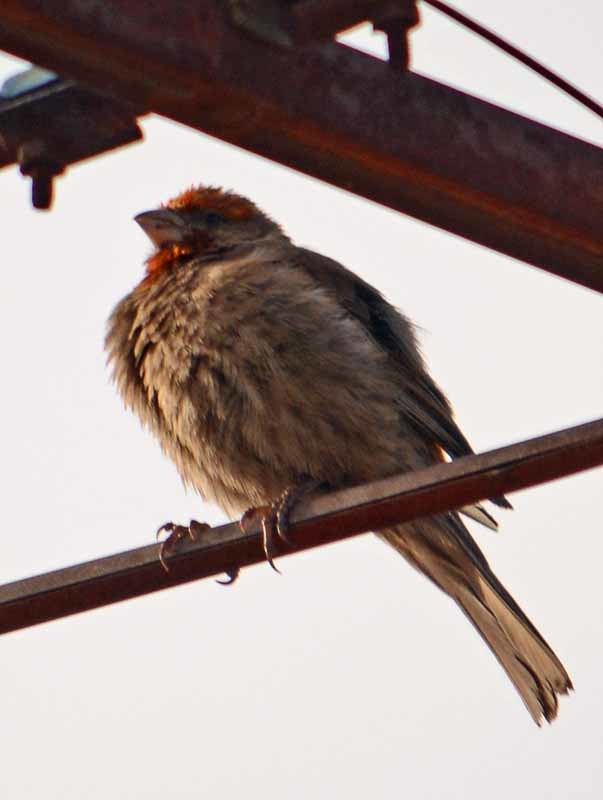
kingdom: Animalia
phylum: Chordata
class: Aves
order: Passeriformes
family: Fringillidae
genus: Haemorhous
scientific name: Haemorhous mexicanus
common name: House finch
